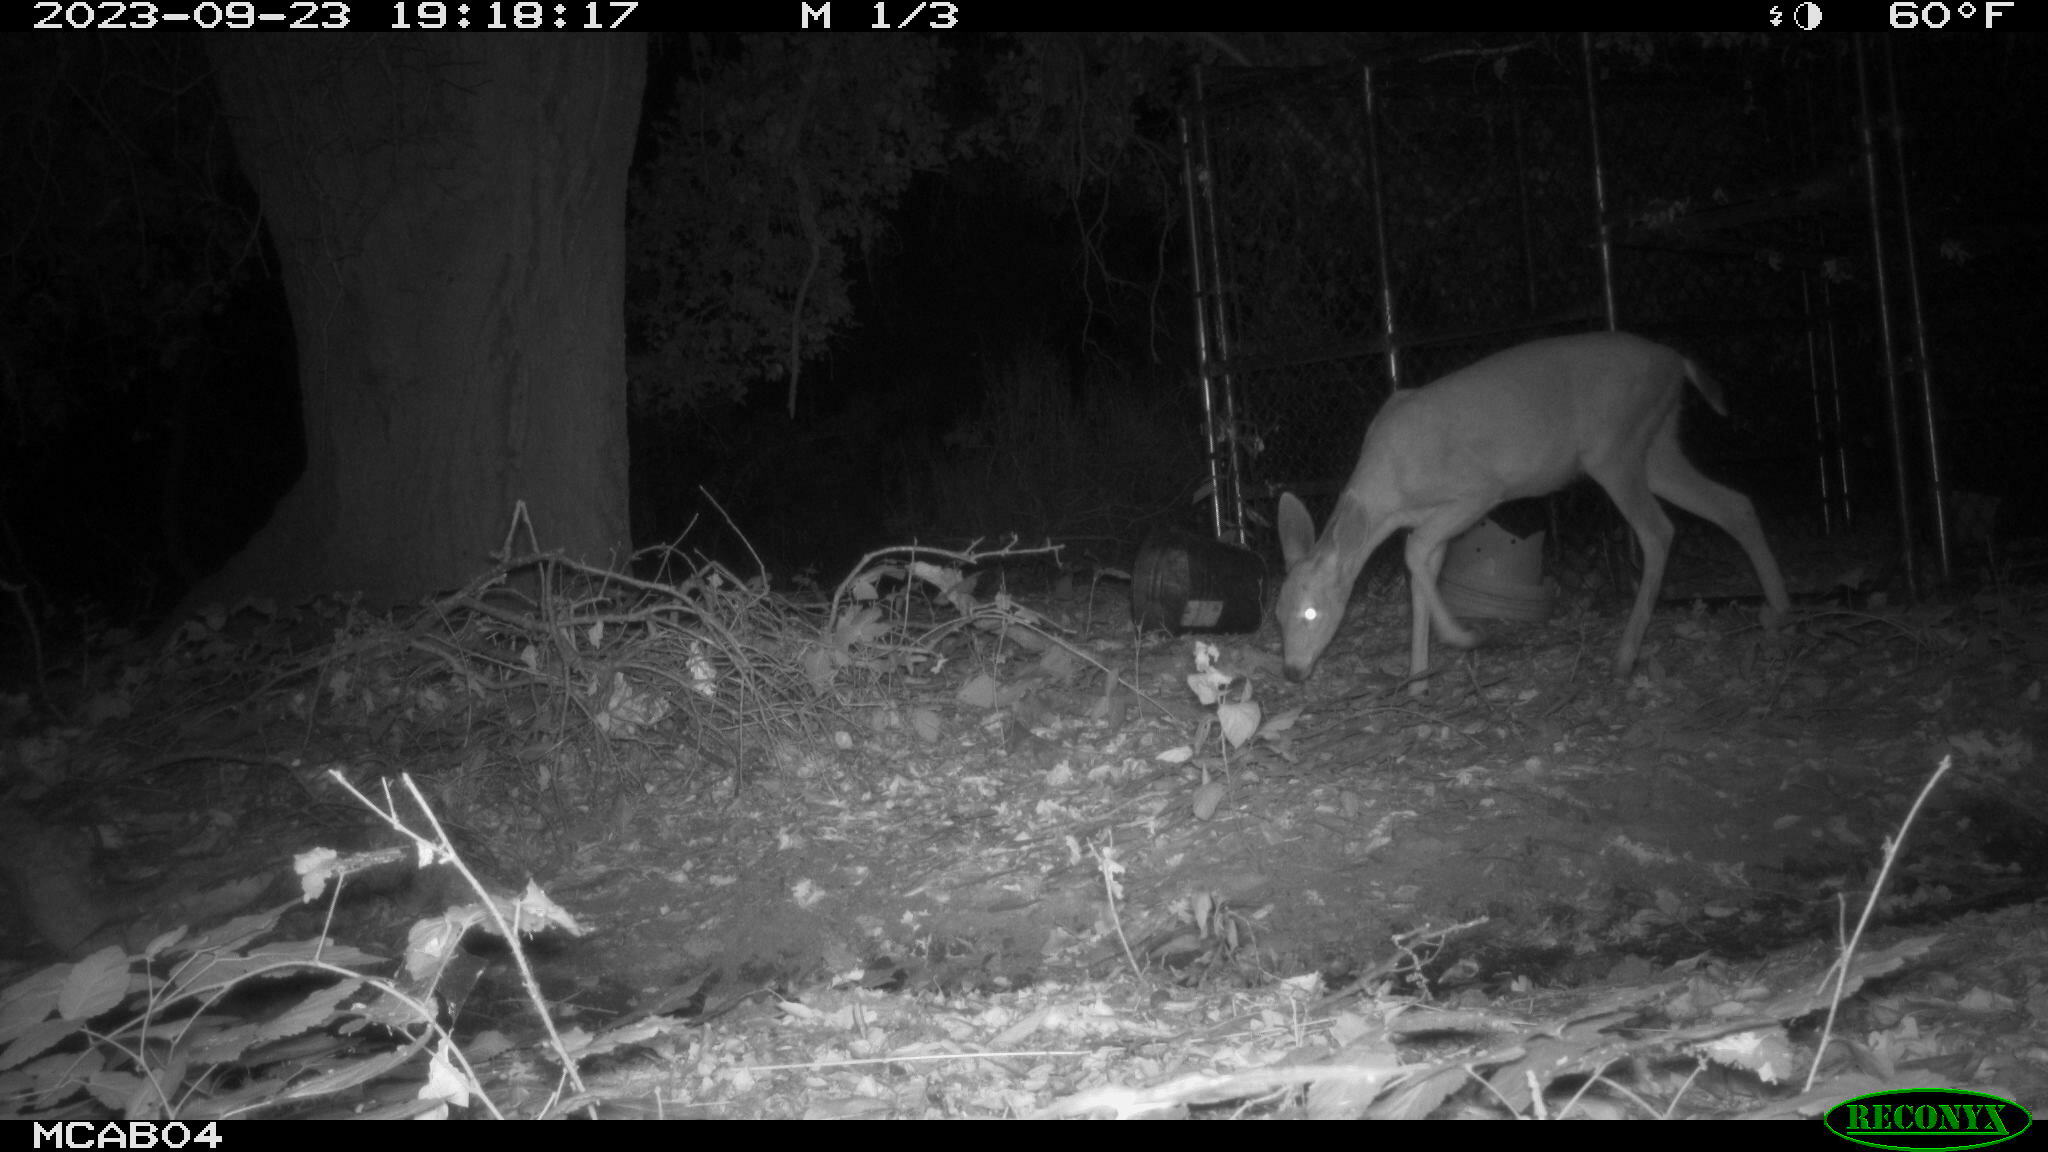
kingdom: Animalia
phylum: Chordata
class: Mammalia
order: Artiodactyla
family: Cervidae
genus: Odocoileus
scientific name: Odocoileus hemionus
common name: Mule deer
